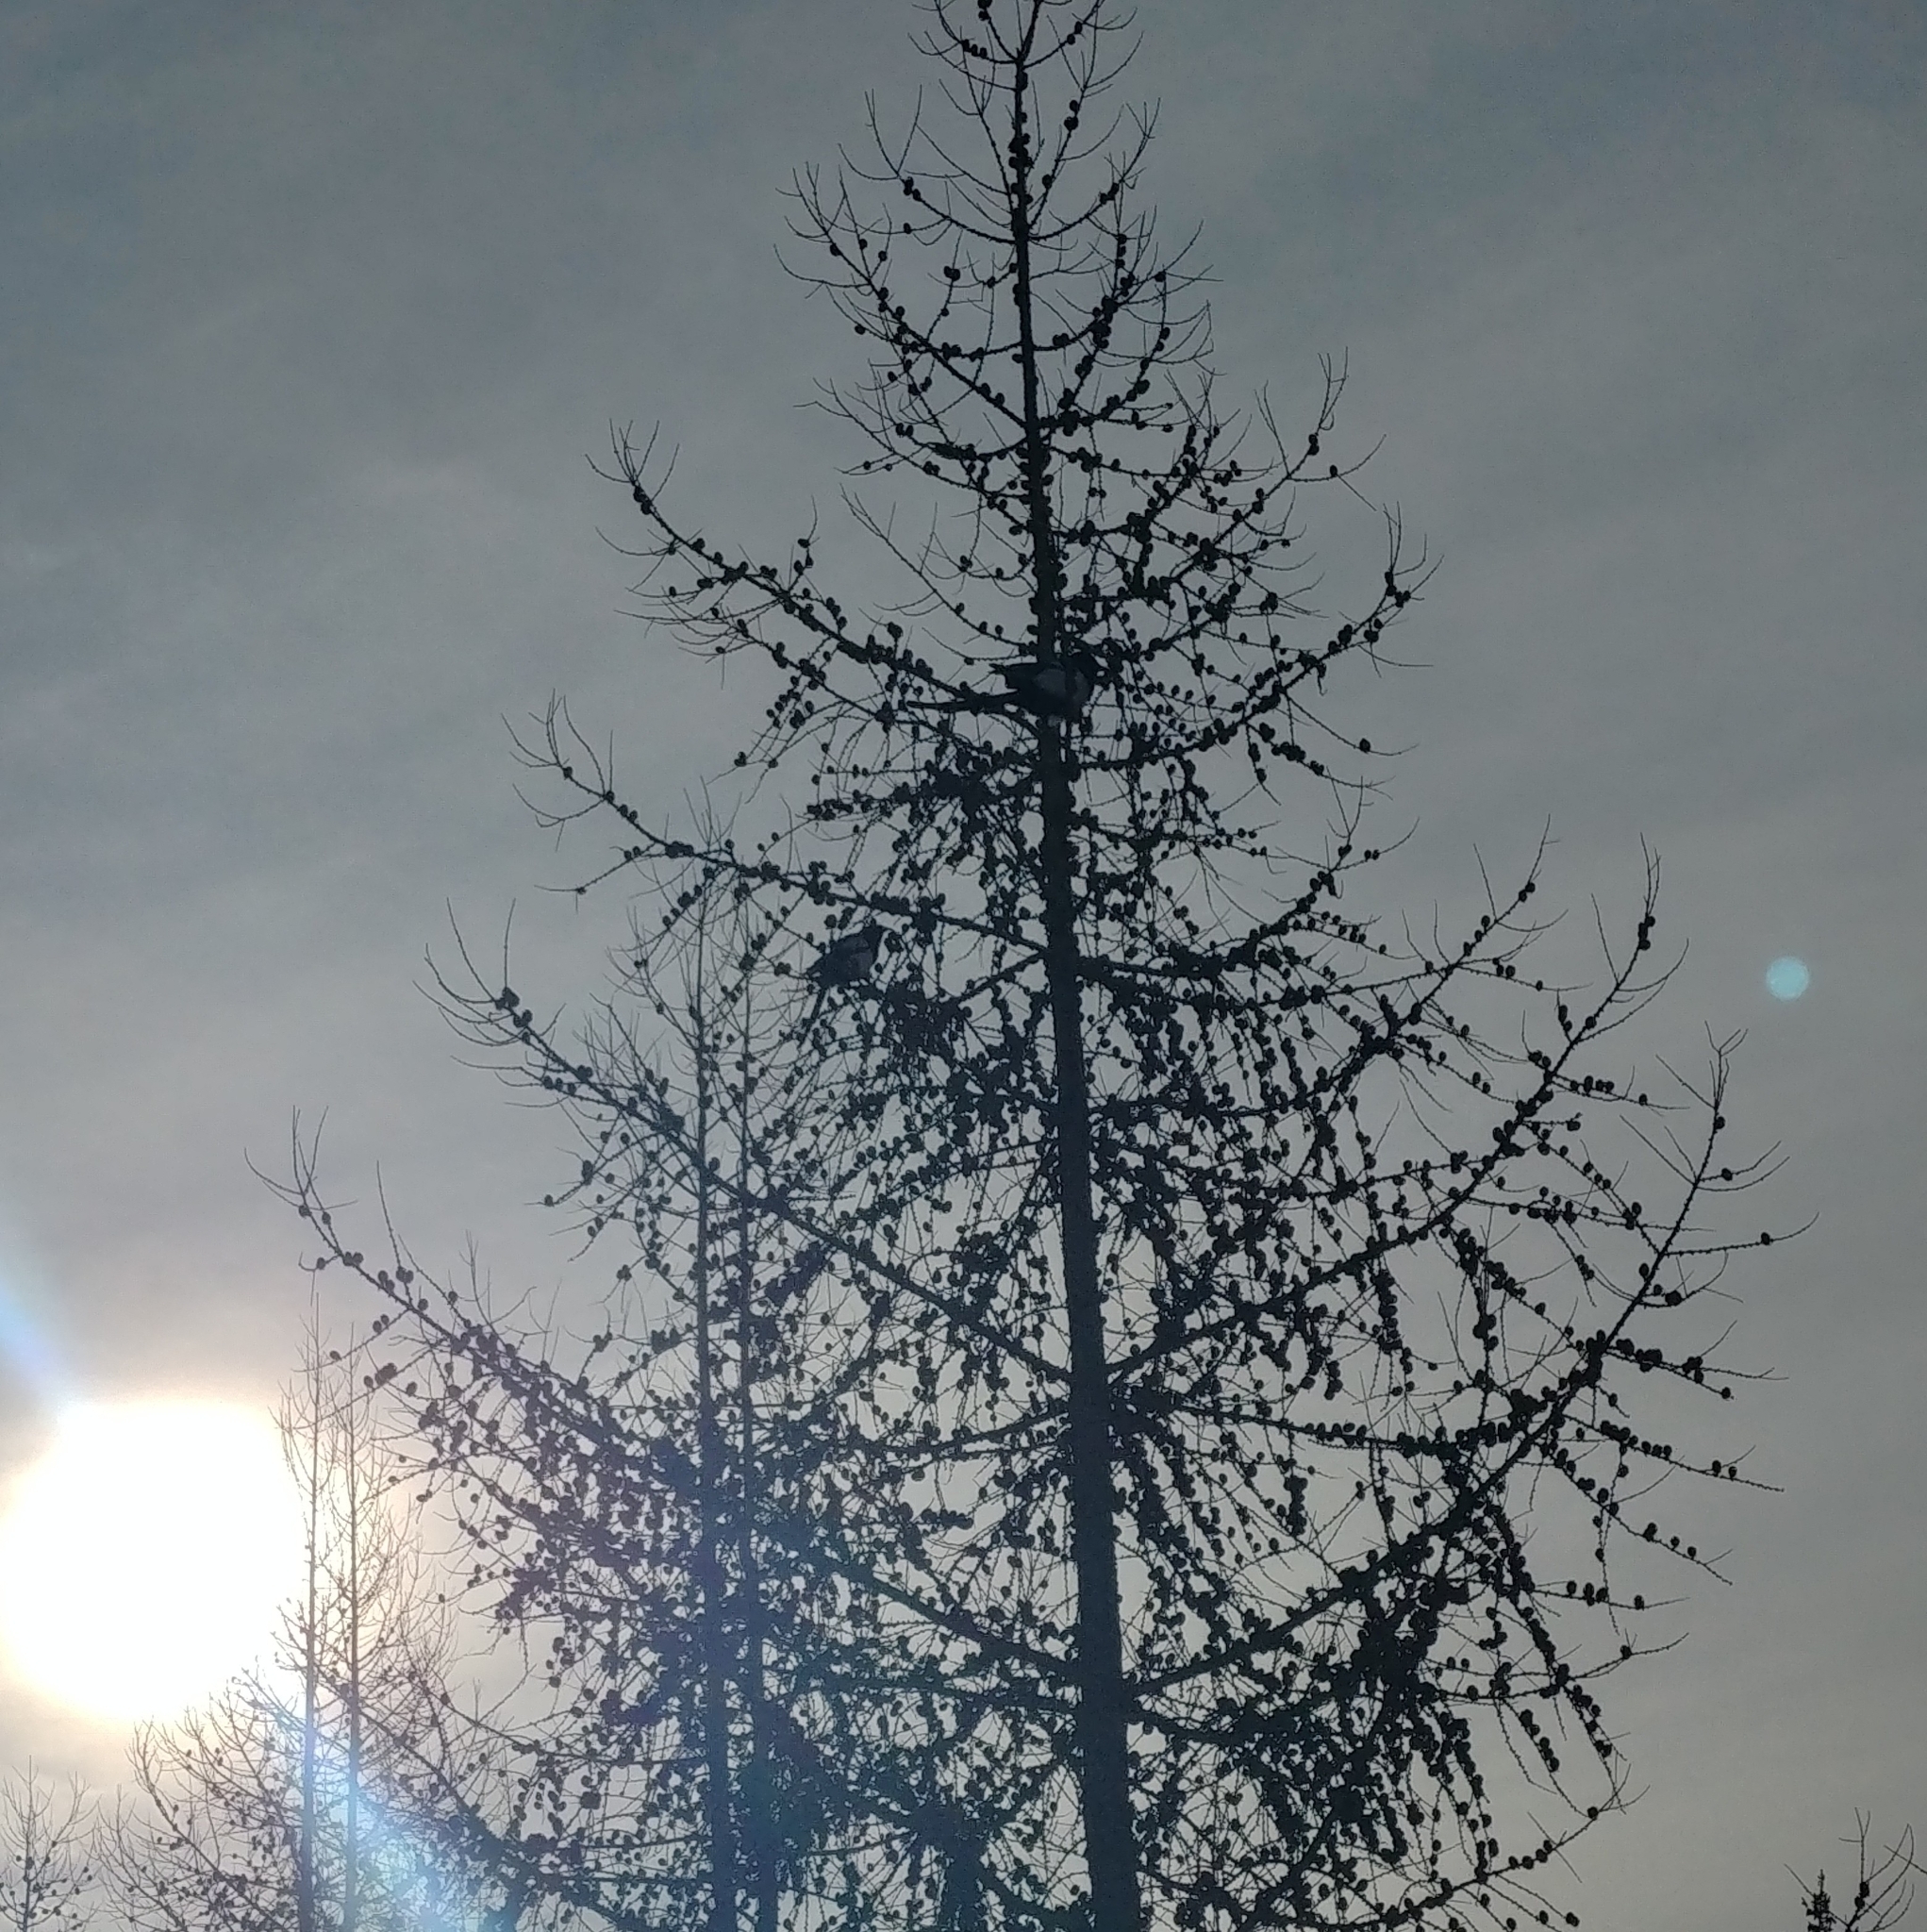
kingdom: Animalia
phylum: Chordata
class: Aves
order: Passeriformes
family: Corvidae
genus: Pica
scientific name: Pica hudsonia
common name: Black-billed magpie
